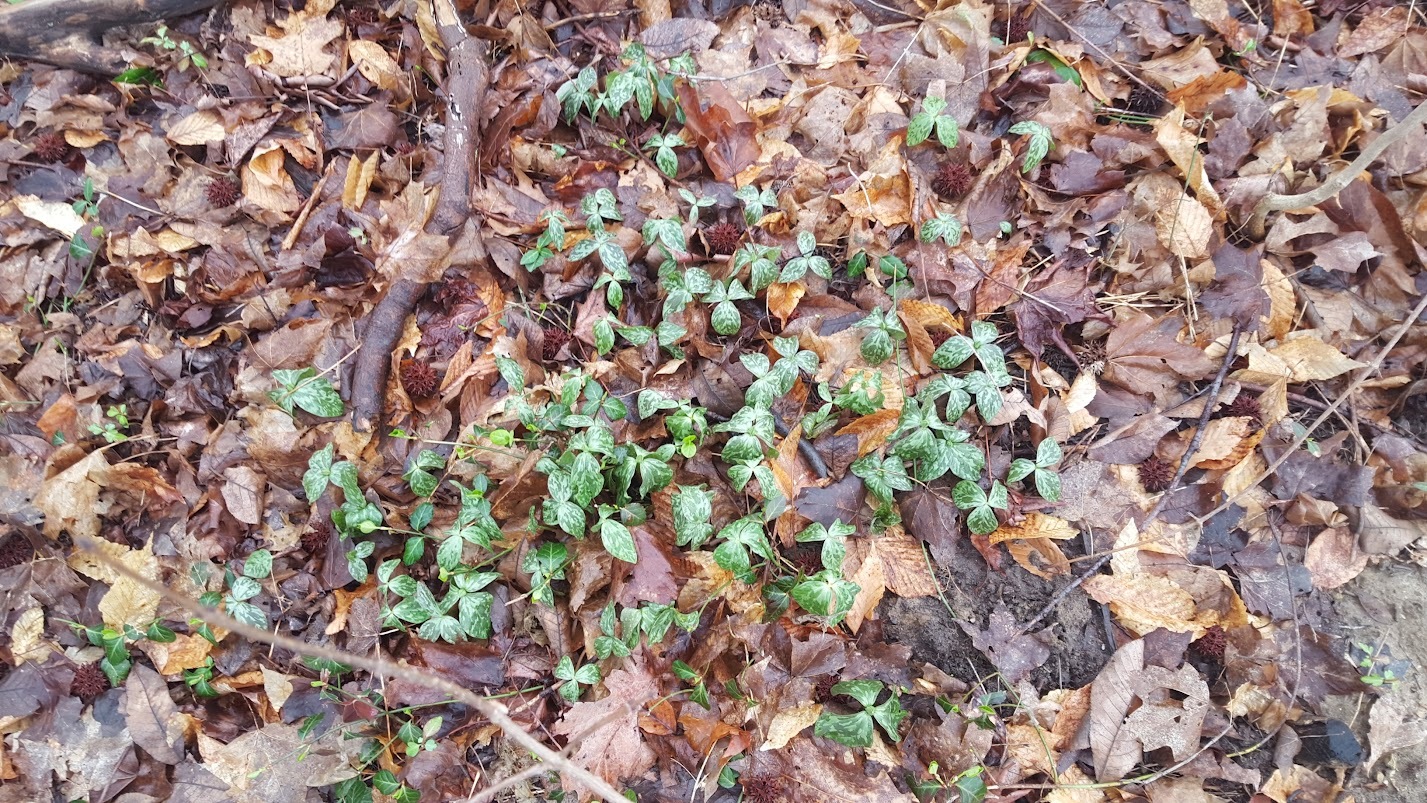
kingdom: Plantae
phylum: Tracheophyta
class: Liliopsida
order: Liliales
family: Melanthiaceae
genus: Trillium
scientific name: Trillium recurvatum
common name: Bloody butcher
